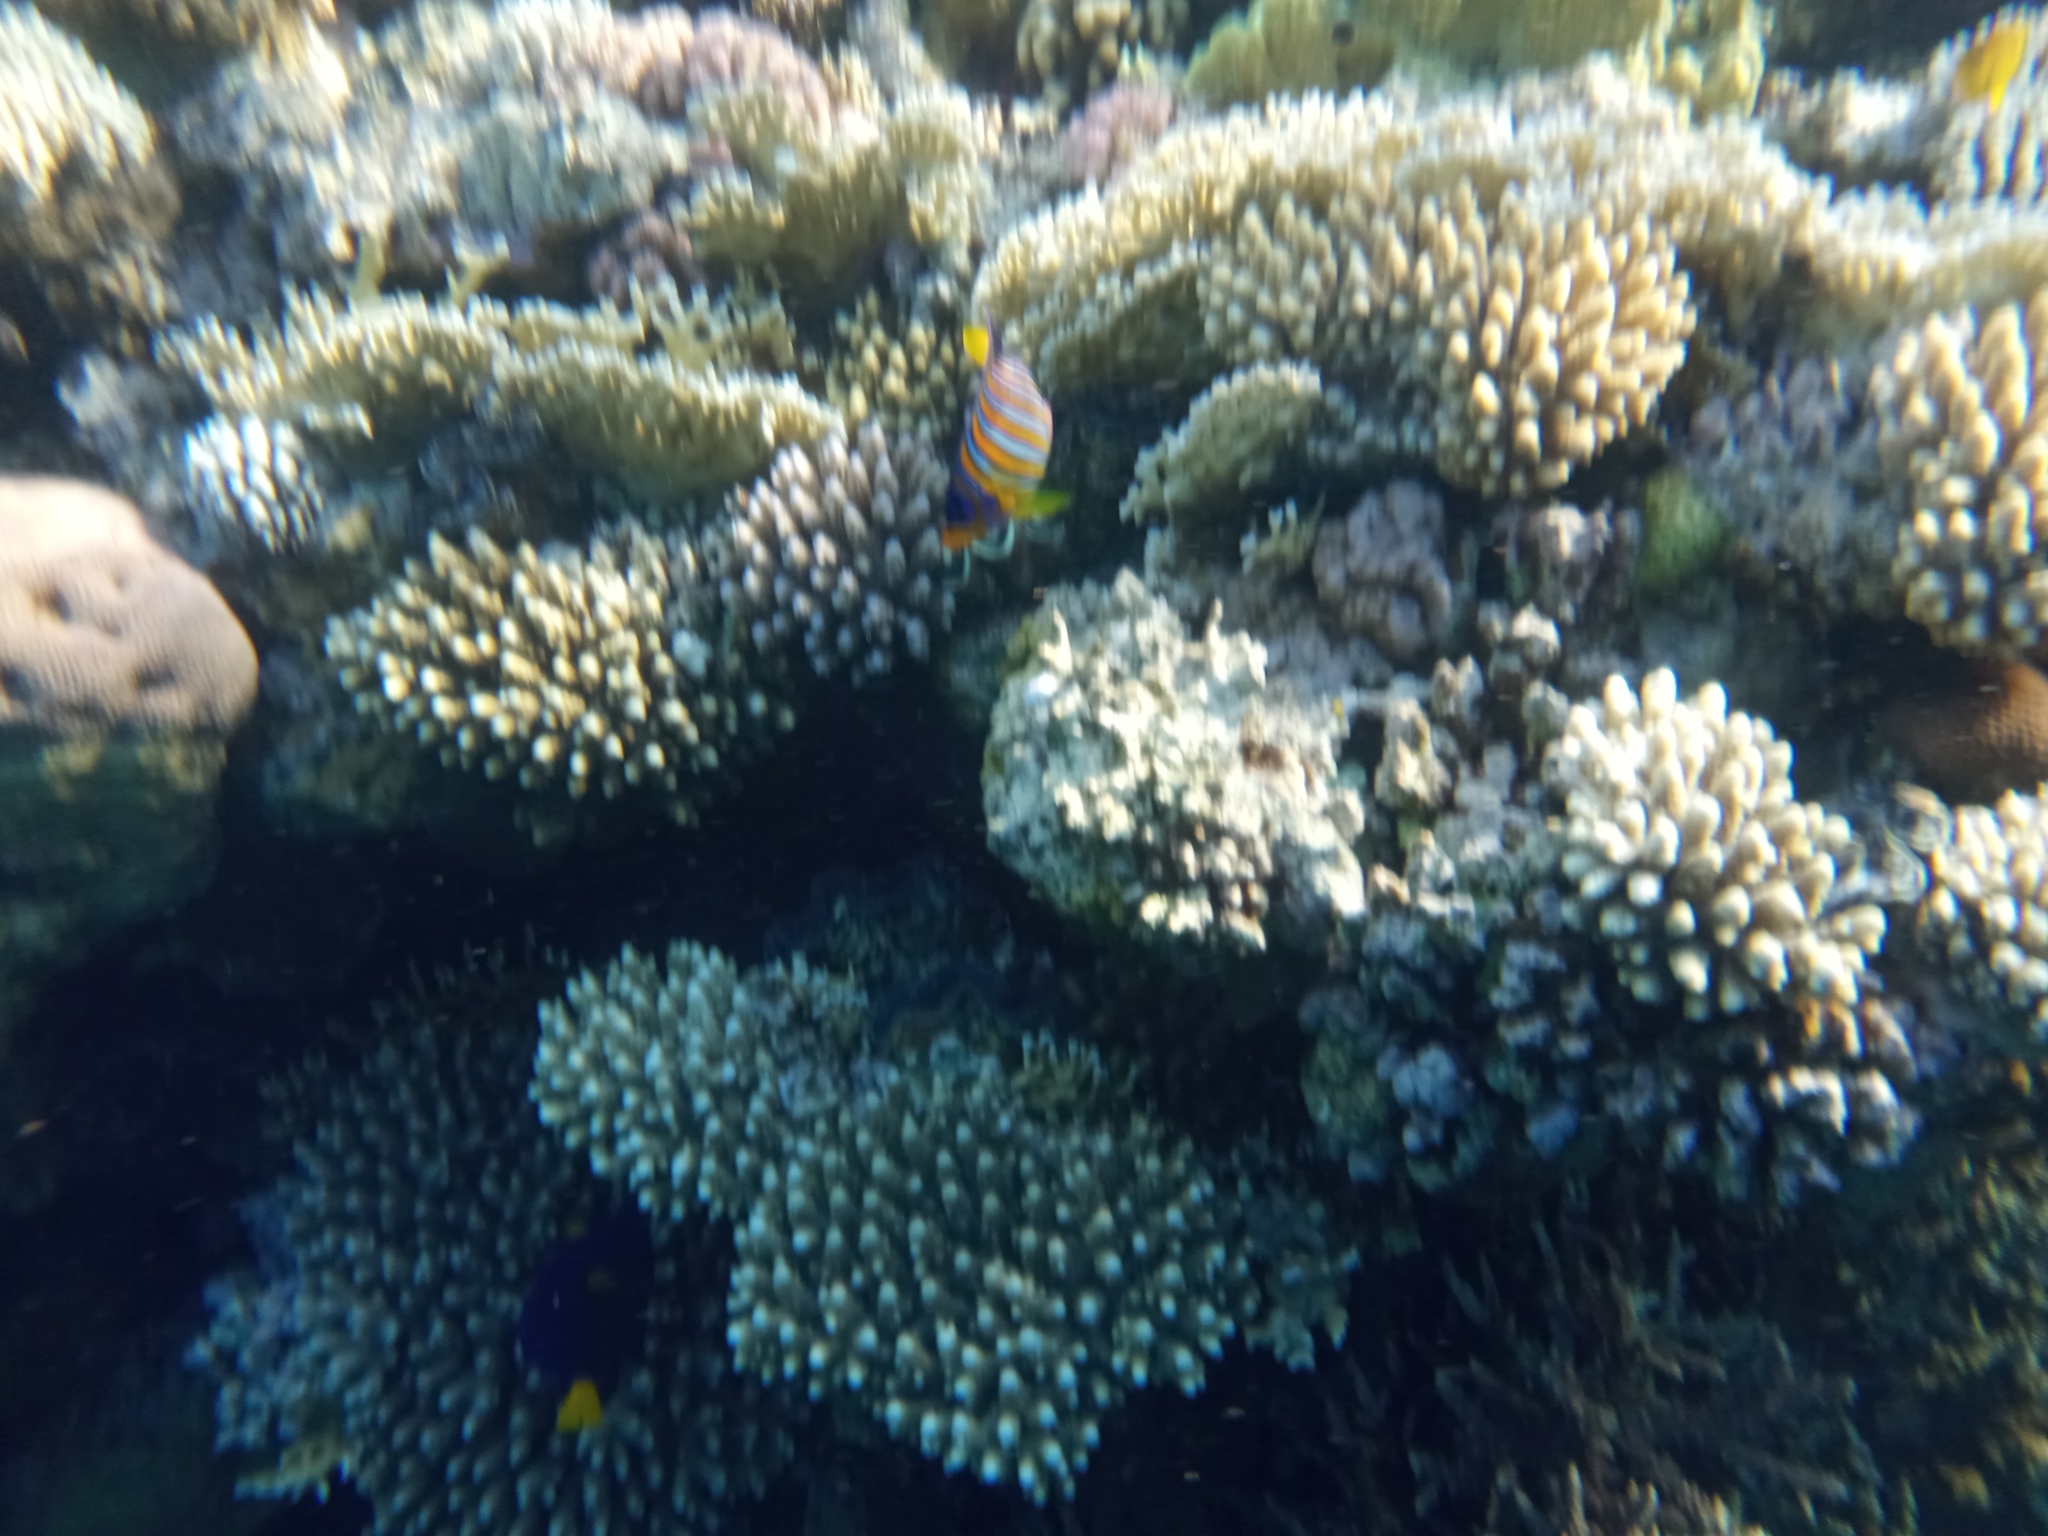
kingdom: Animalia
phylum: Chordata
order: Perciformes
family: Pomacanthidae
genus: Pygoplites
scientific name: Pygoplites diacanthus
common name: Regal angelfish
